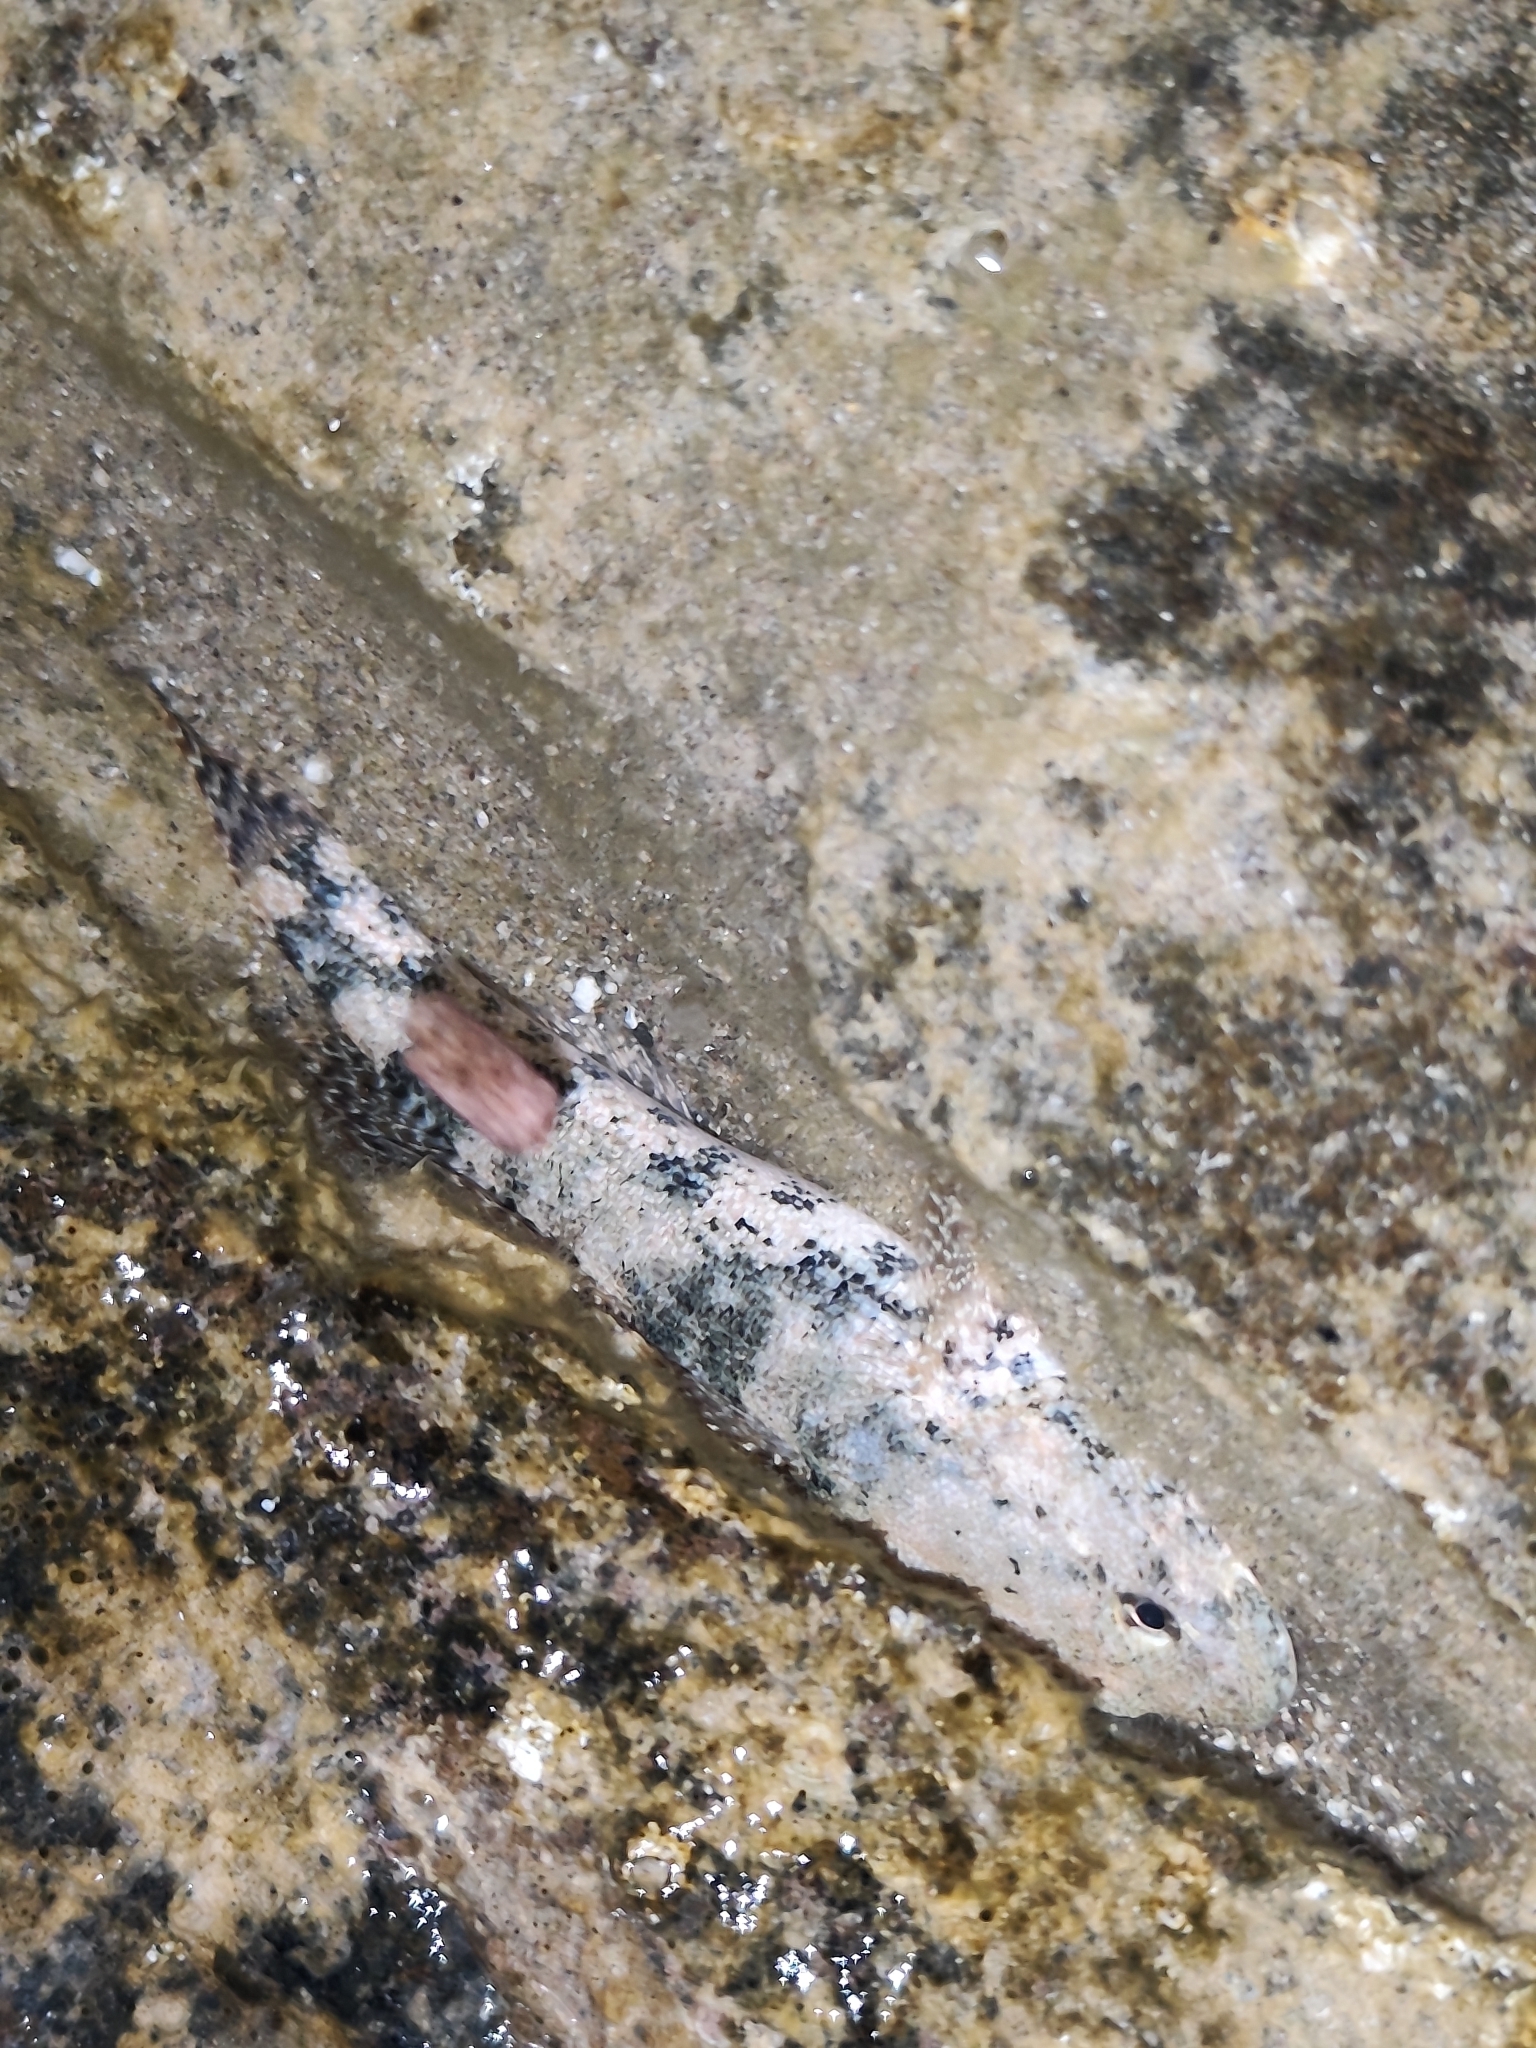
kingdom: Animalia
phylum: Chordata
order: Perciformes
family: Gobiidae
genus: Gobius
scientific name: Gobius cobitis
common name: Giant goby
